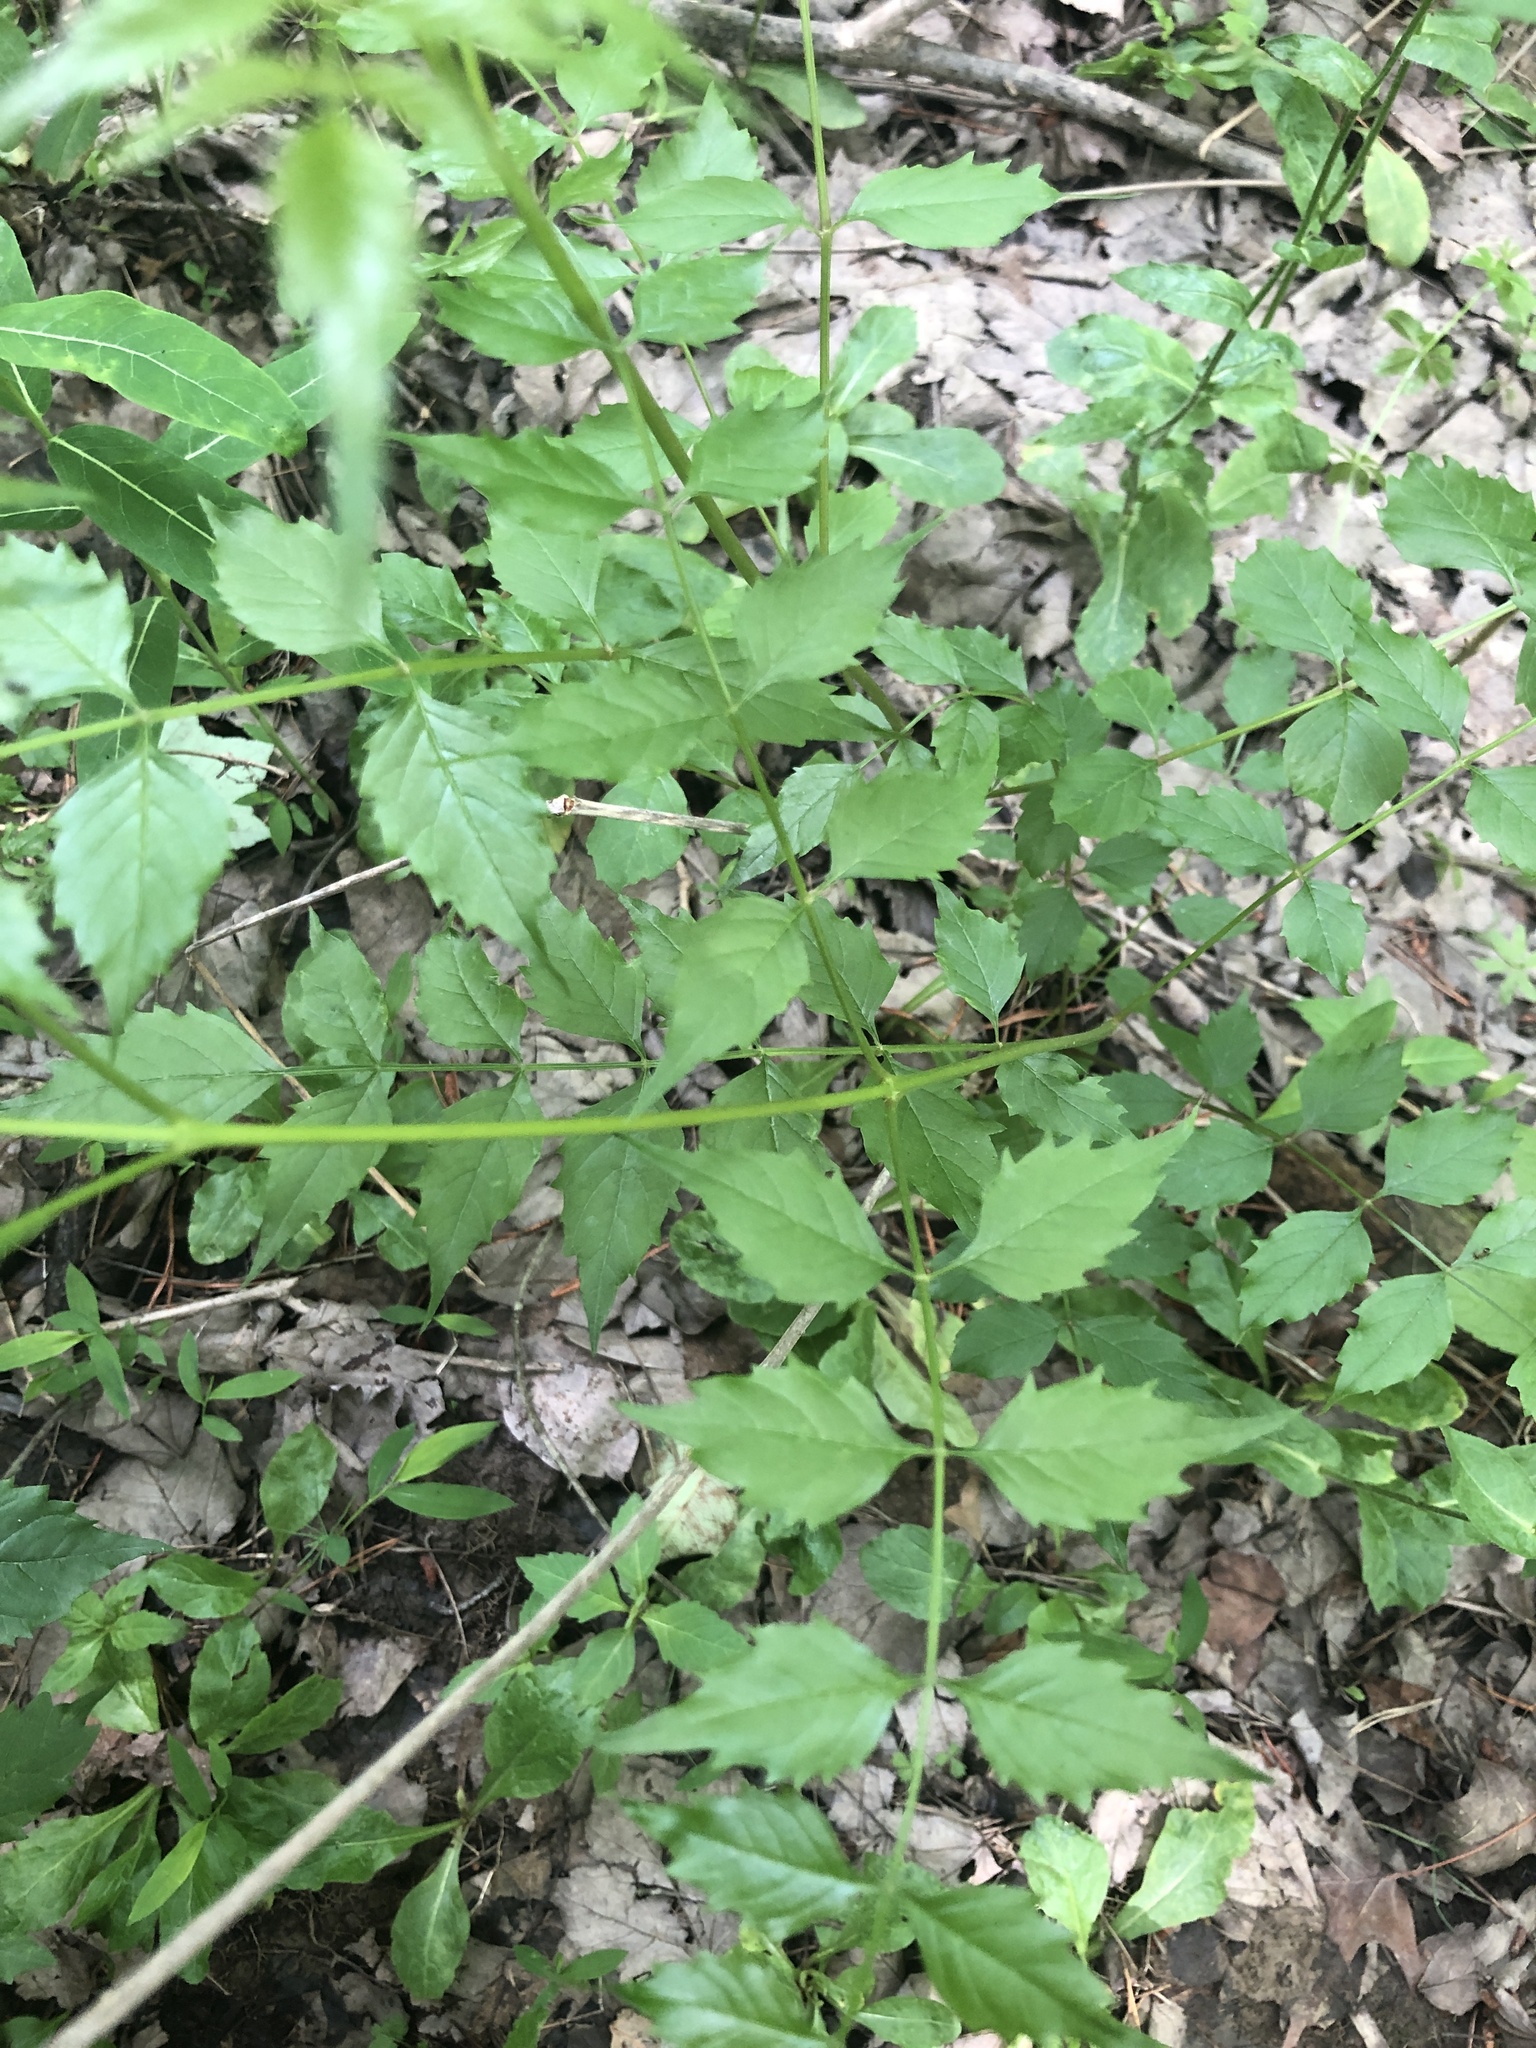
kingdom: Plantae
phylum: Tracheophyta
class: Magnoliopsida
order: Lamiales
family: Bignoniaceae
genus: Campsis
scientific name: Campsis radicans
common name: Trumpet-creeper
